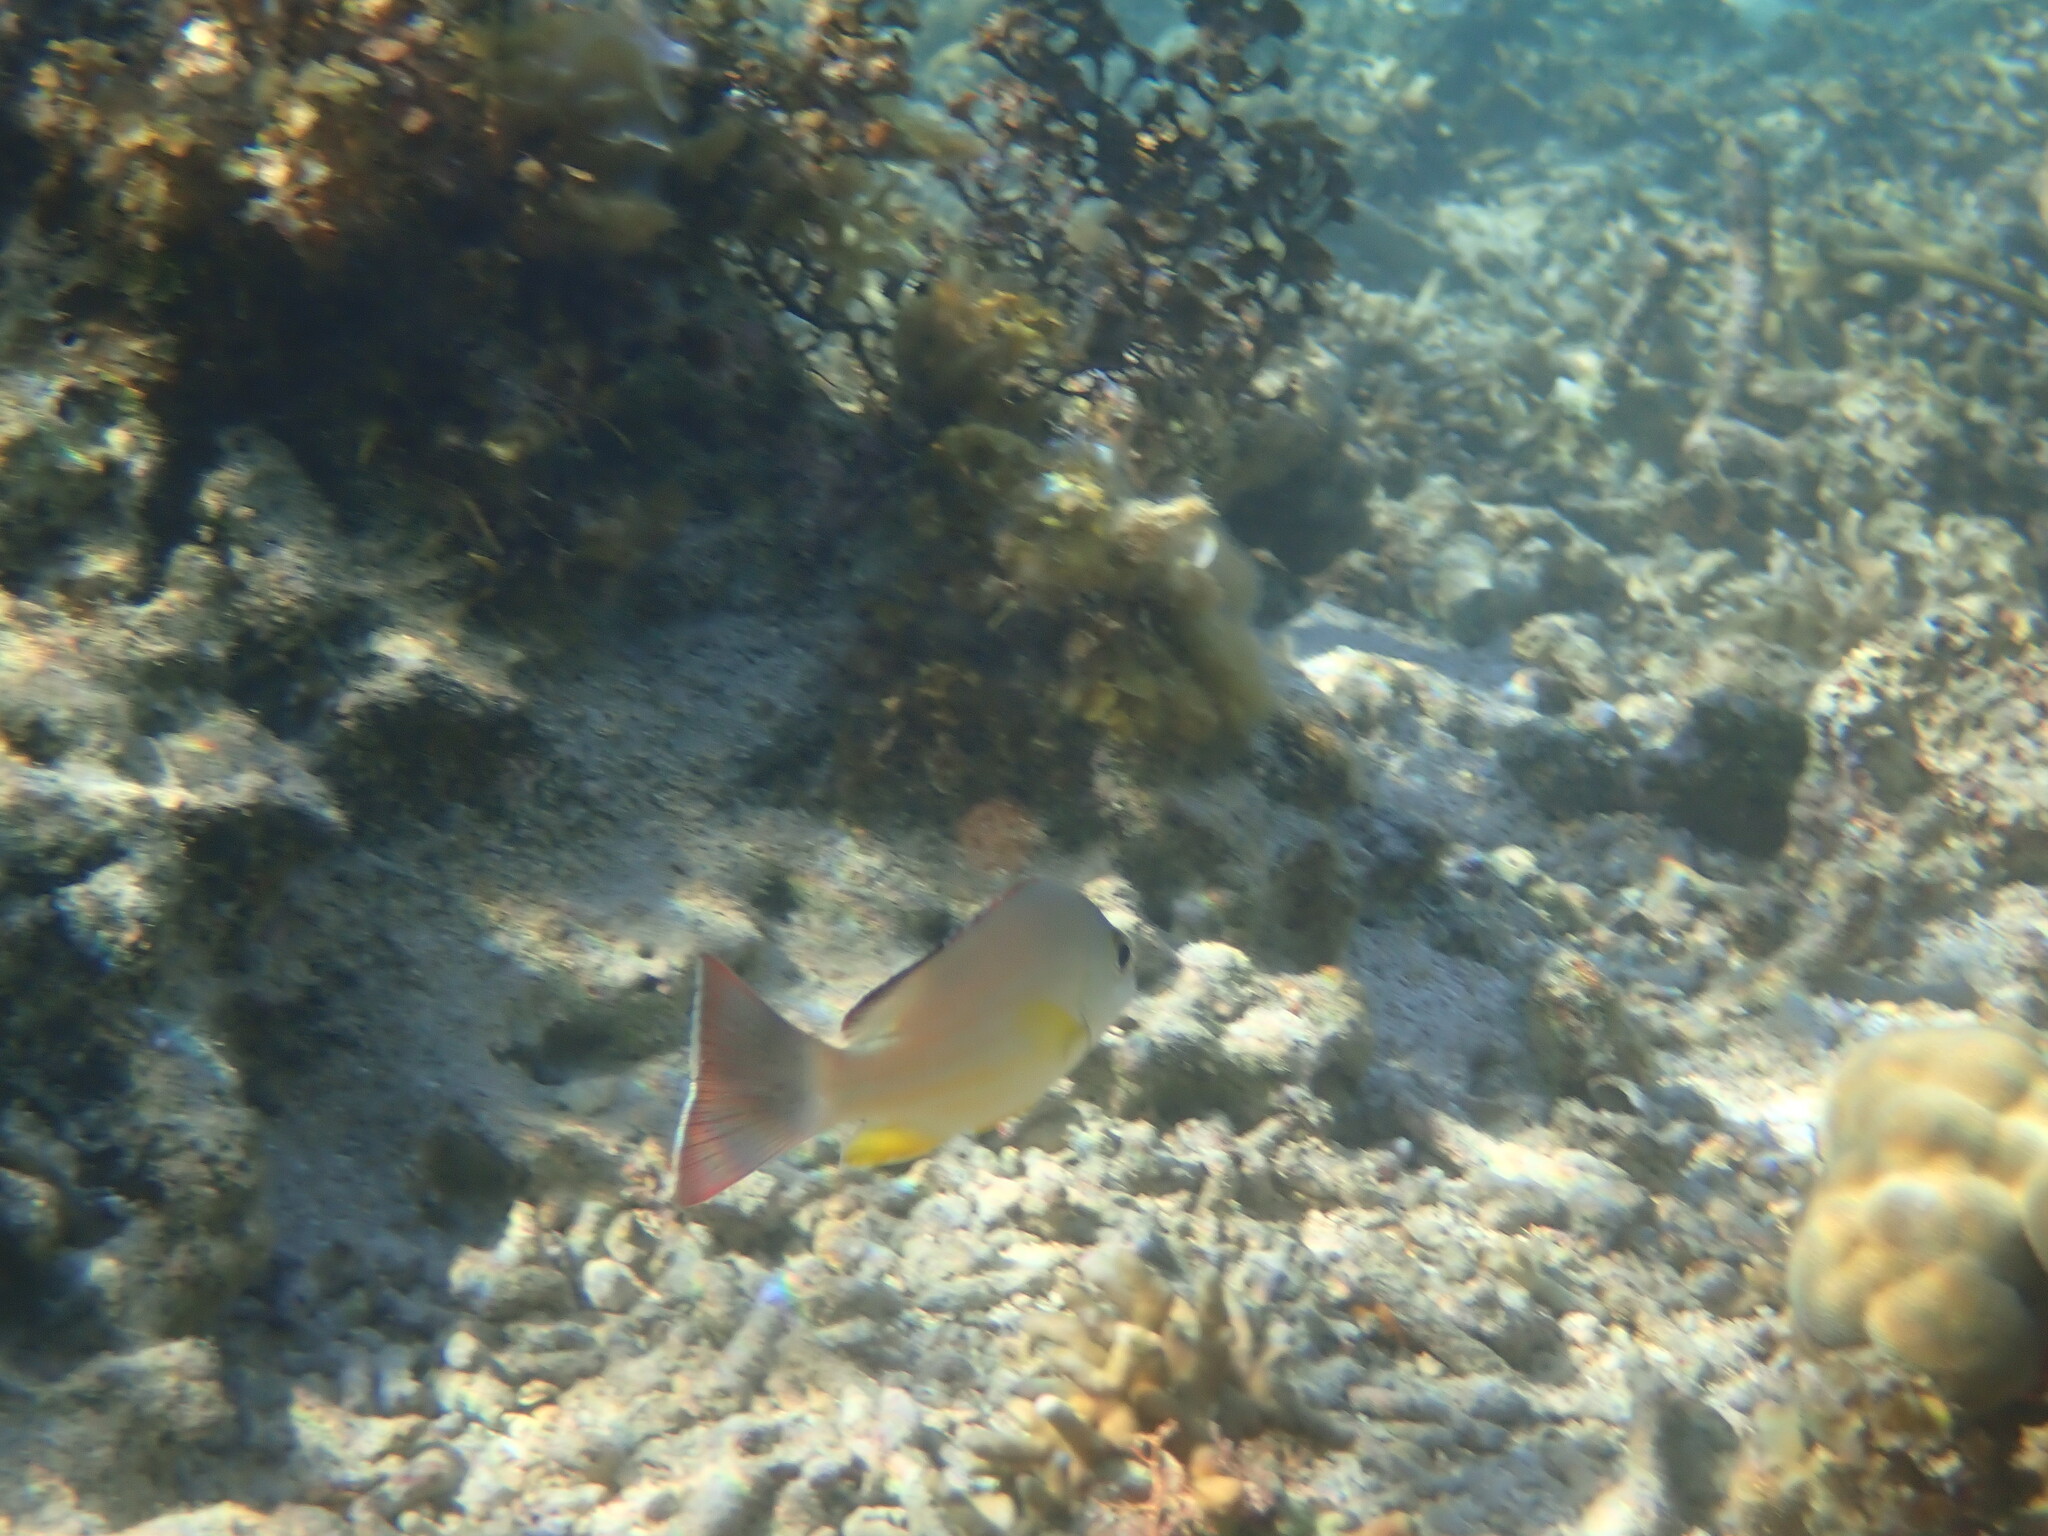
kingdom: Animalia
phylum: Chordata
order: Perciformes
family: Lutjanidae
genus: Lutjanus
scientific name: Lutjanus fulvus
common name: Blacktail snapper
